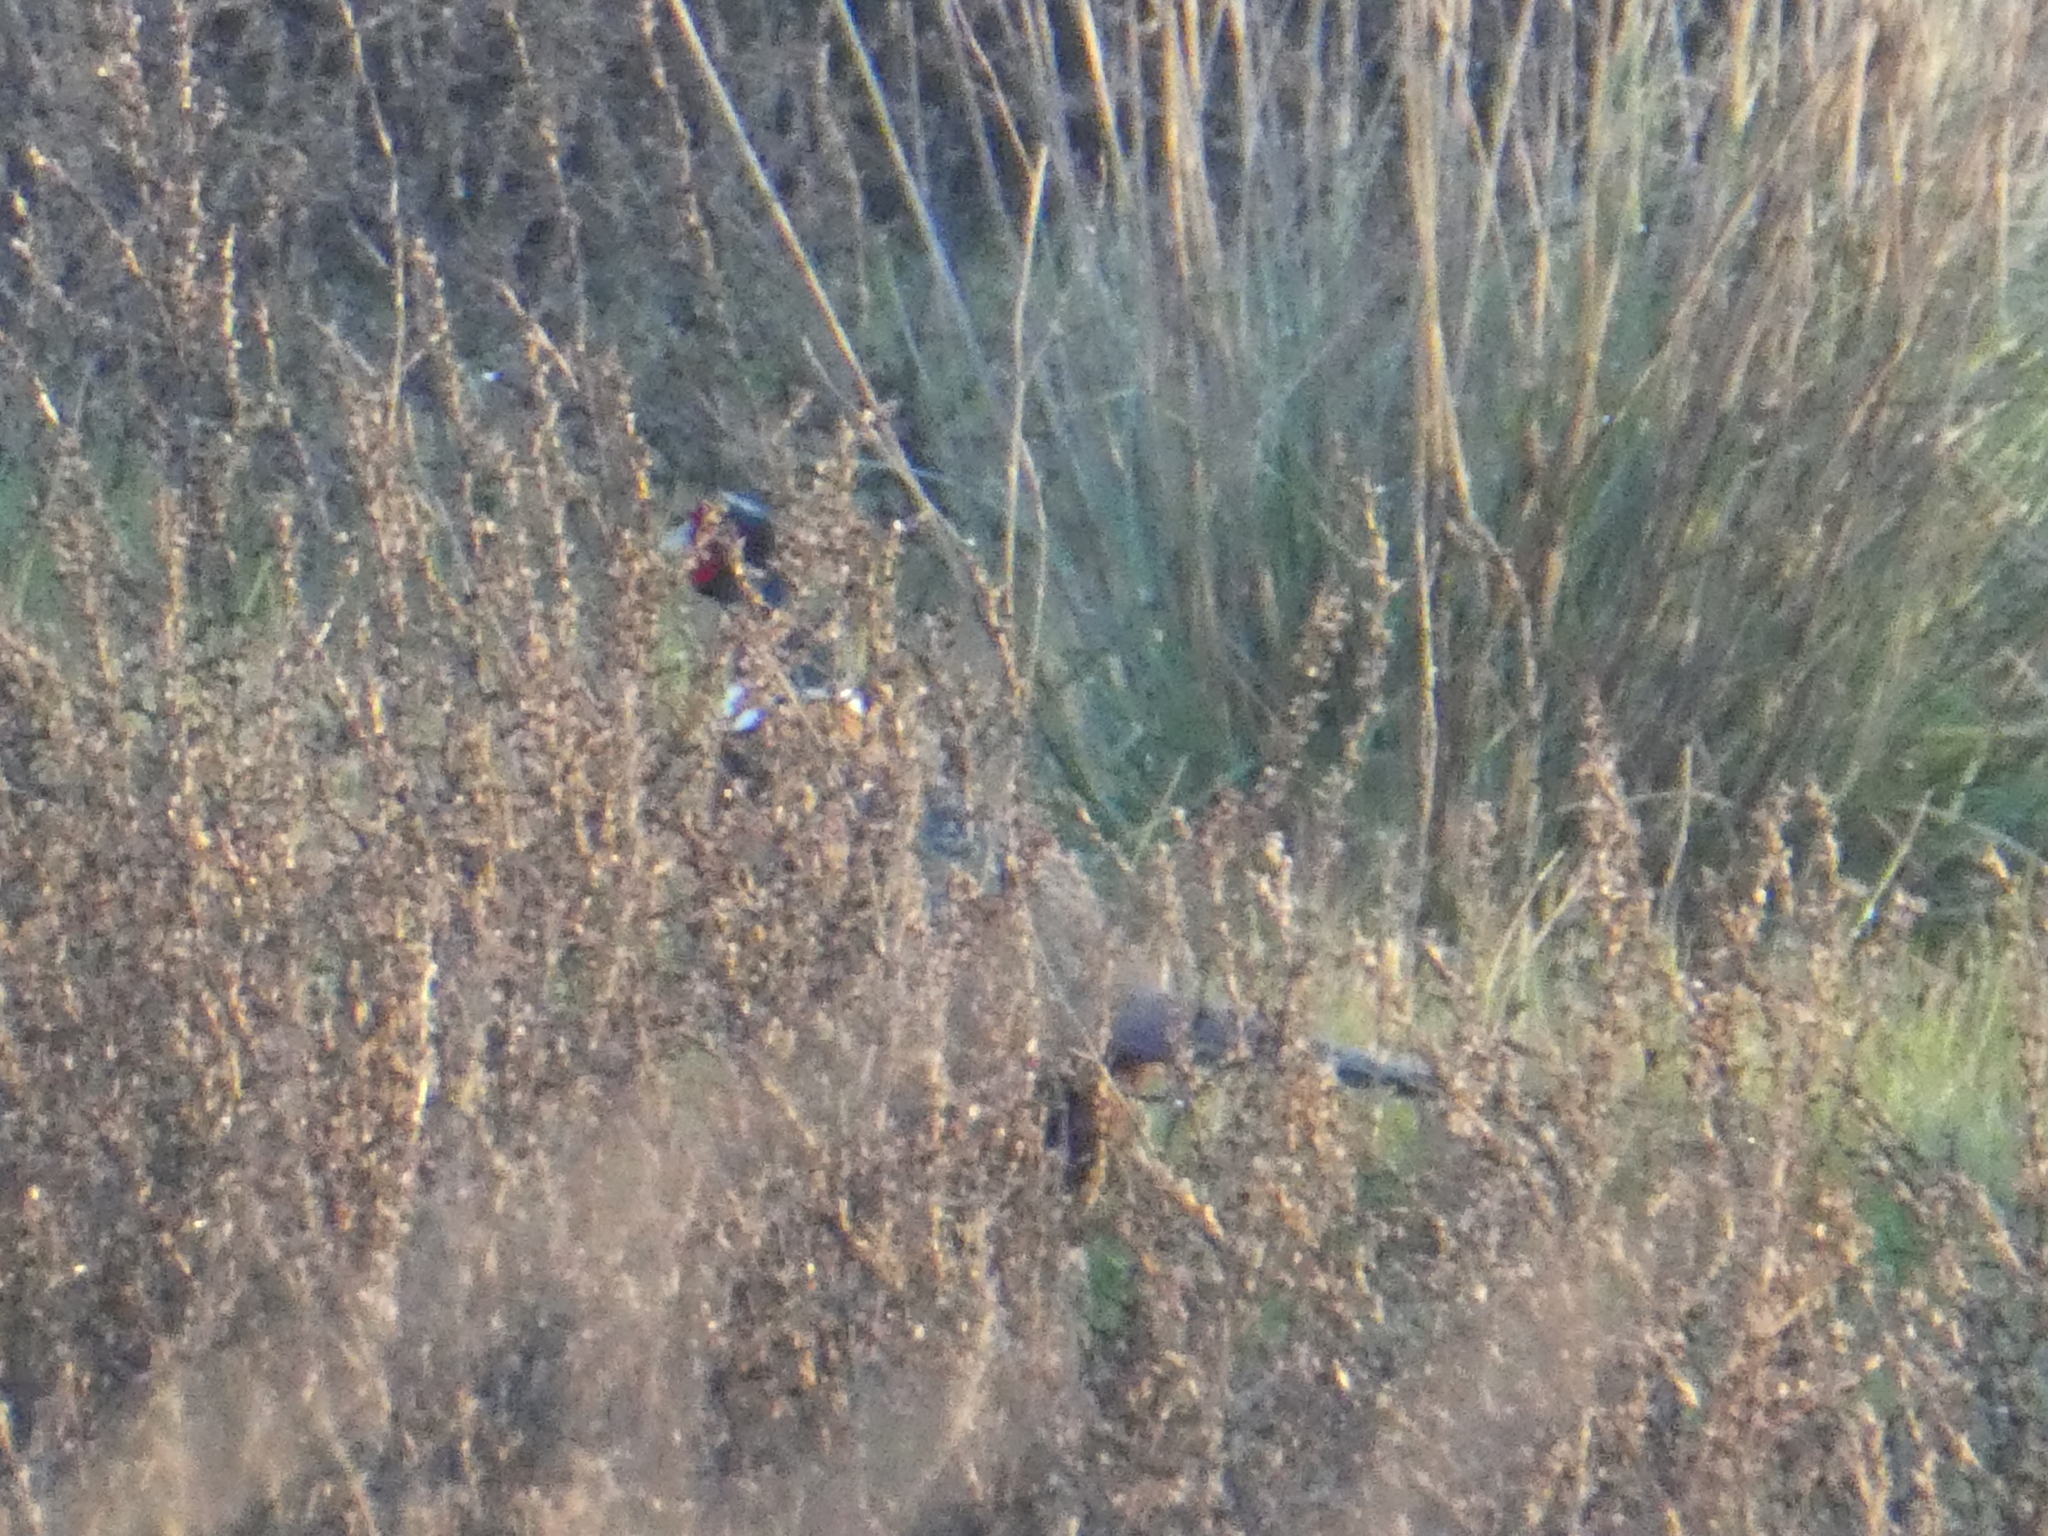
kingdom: Animalia
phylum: Chordata
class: Aves
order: Galliformes
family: Phasianidae
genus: Phasianus
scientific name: Phasianus colchicus
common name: Common pheasant
